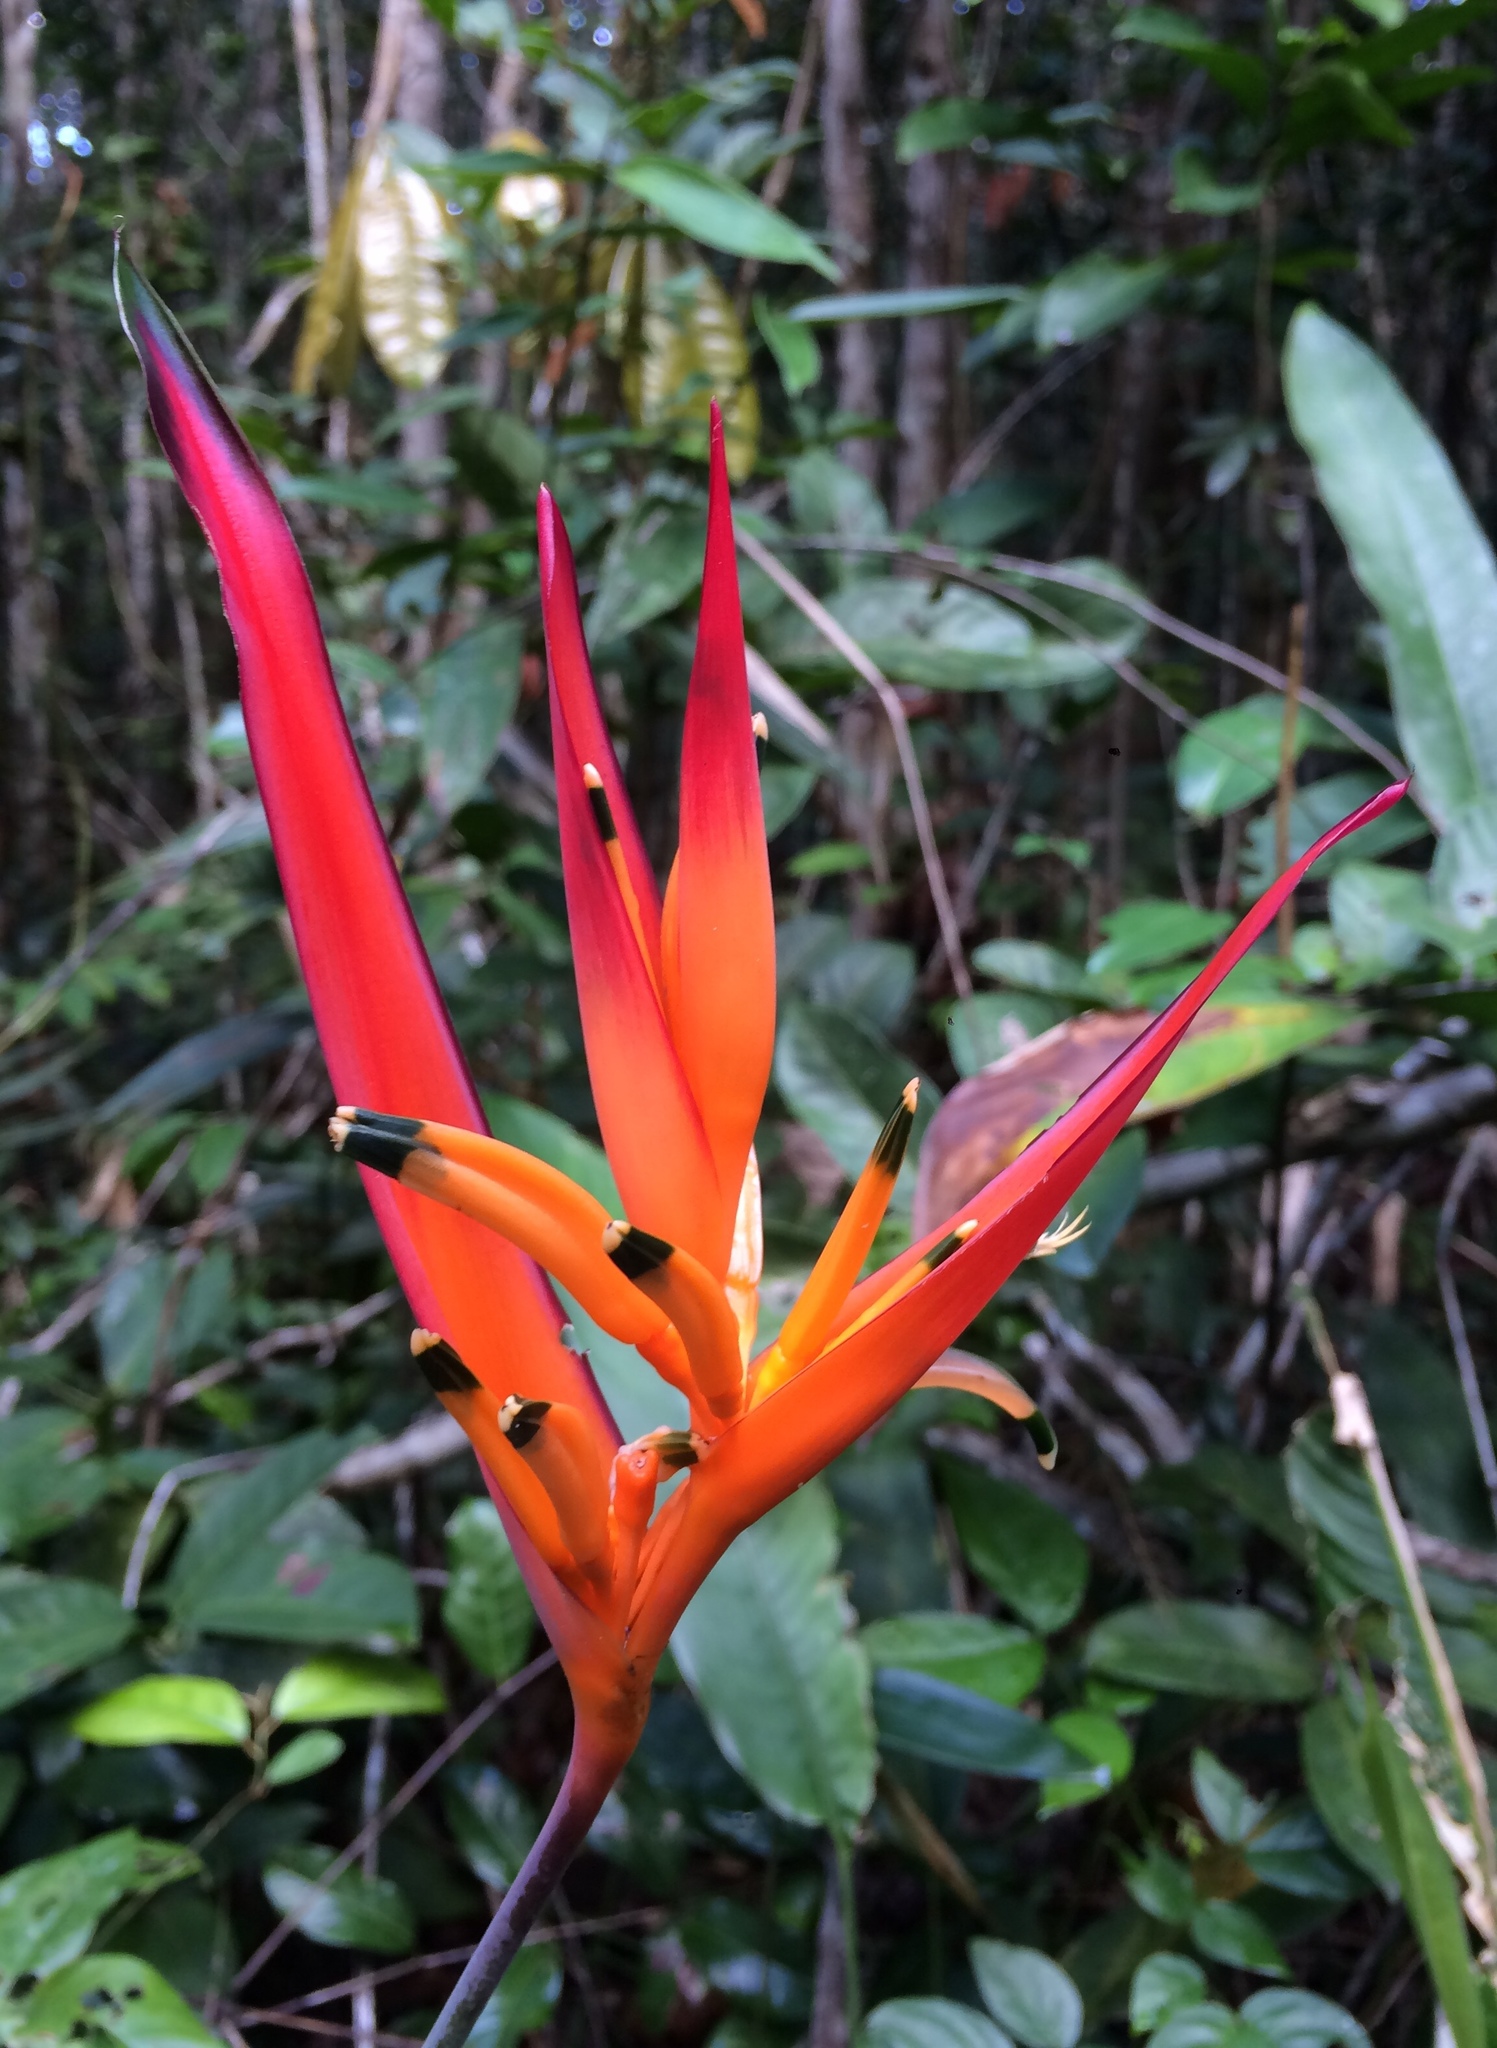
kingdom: Plantae
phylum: Tracheophyta
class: Liliopsida
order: Zingiberales
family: Heliconiaceae
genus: Heliconia
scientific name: Heliconia psittacorum
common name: Parrot's-flower
